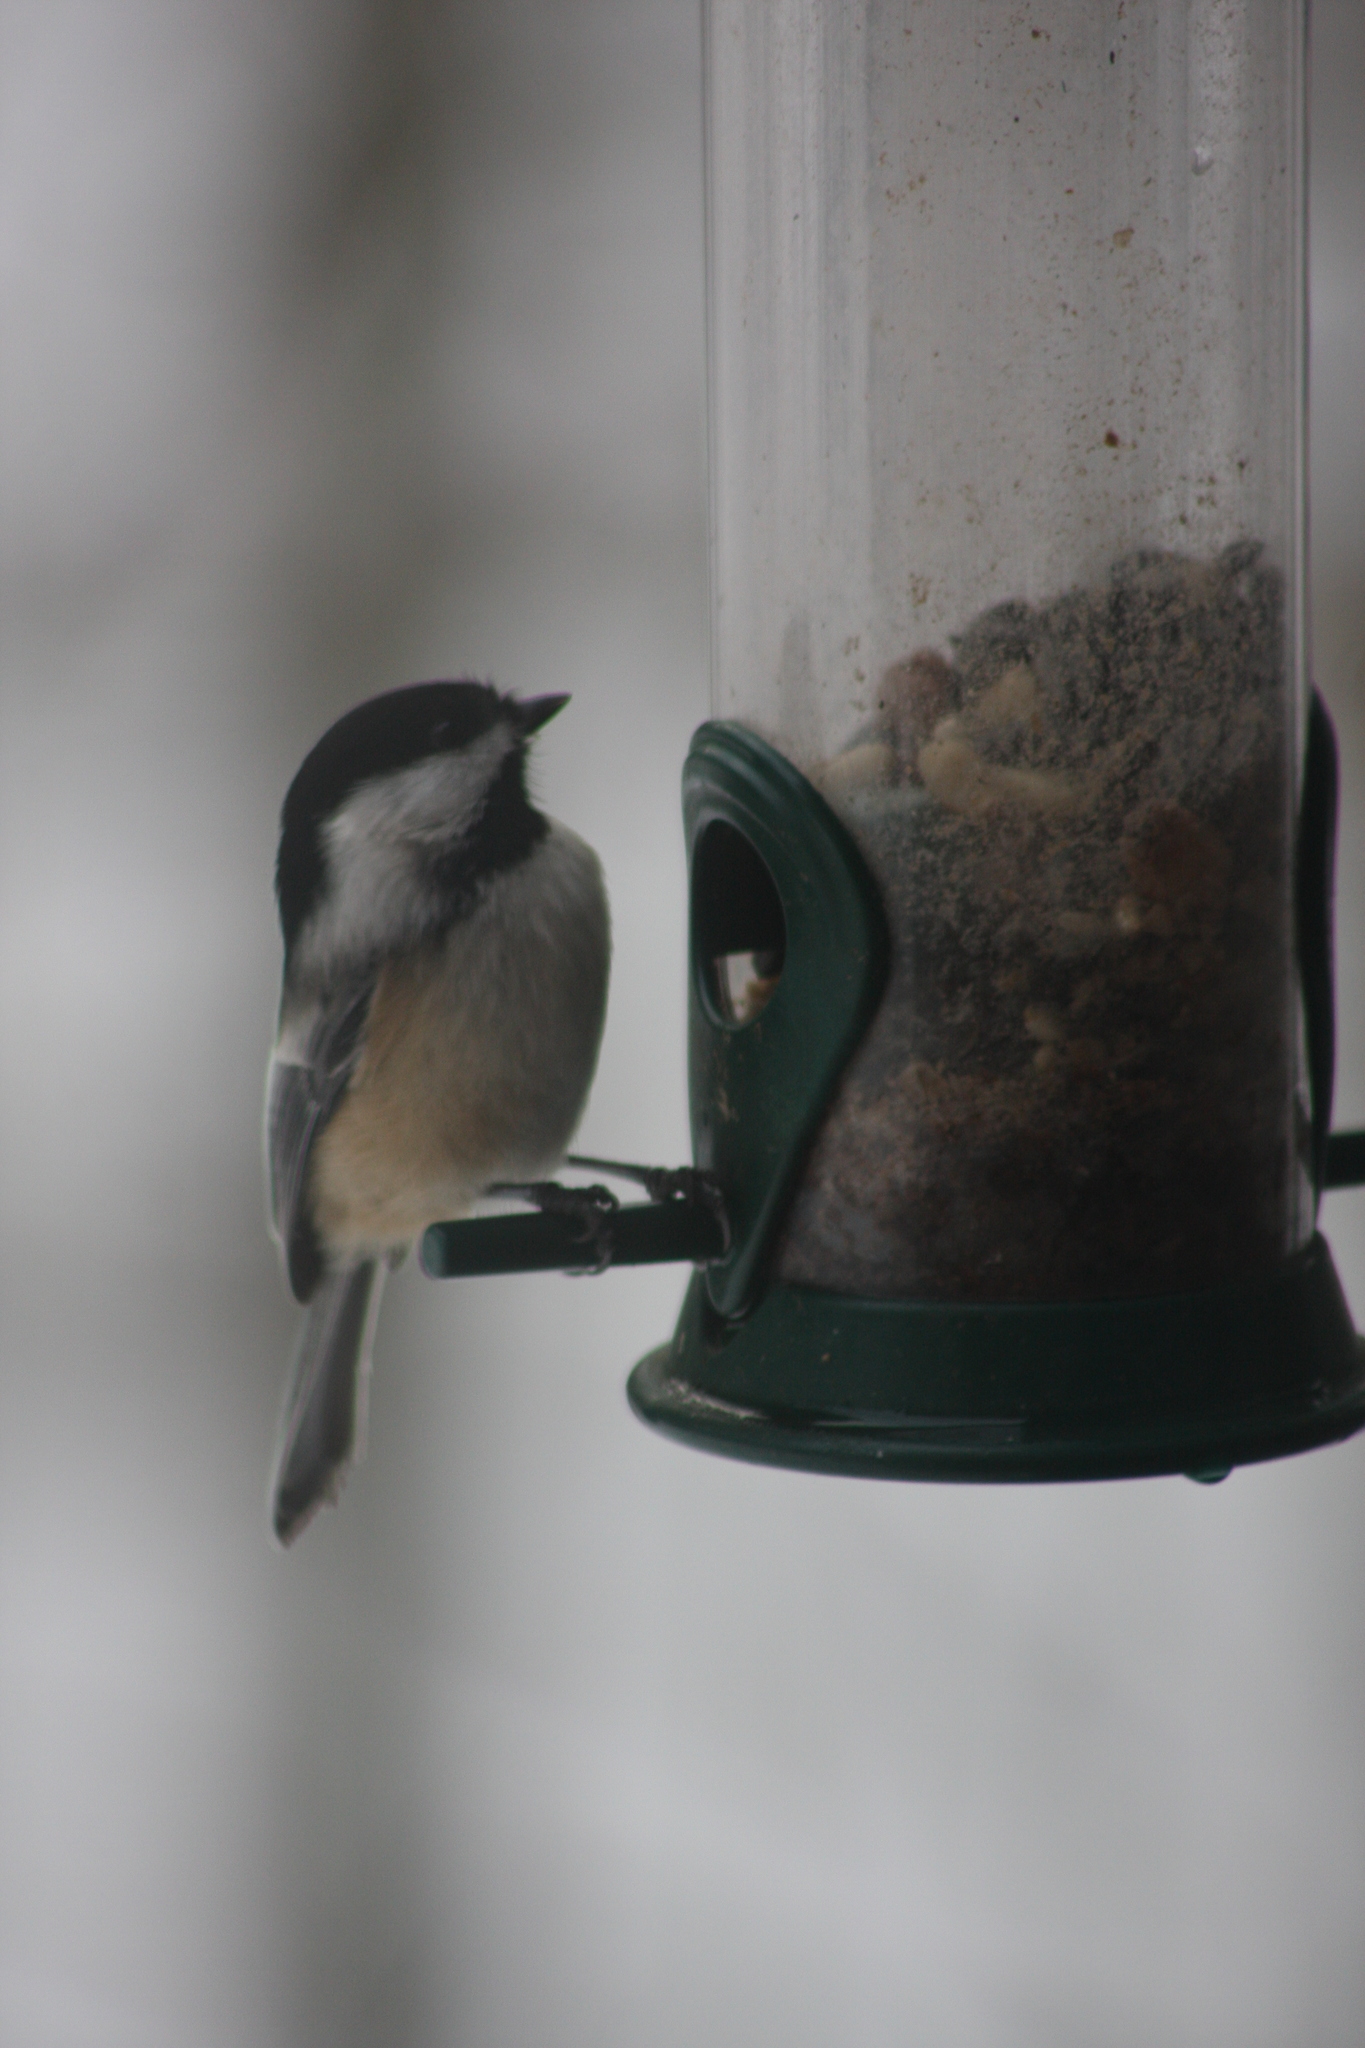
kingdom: Animalia
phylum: Chordata
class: Aves
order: Passeriformes
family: Paridae
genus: Poecile
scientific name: Poecile atricapillus
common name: Black-capped chickadee
